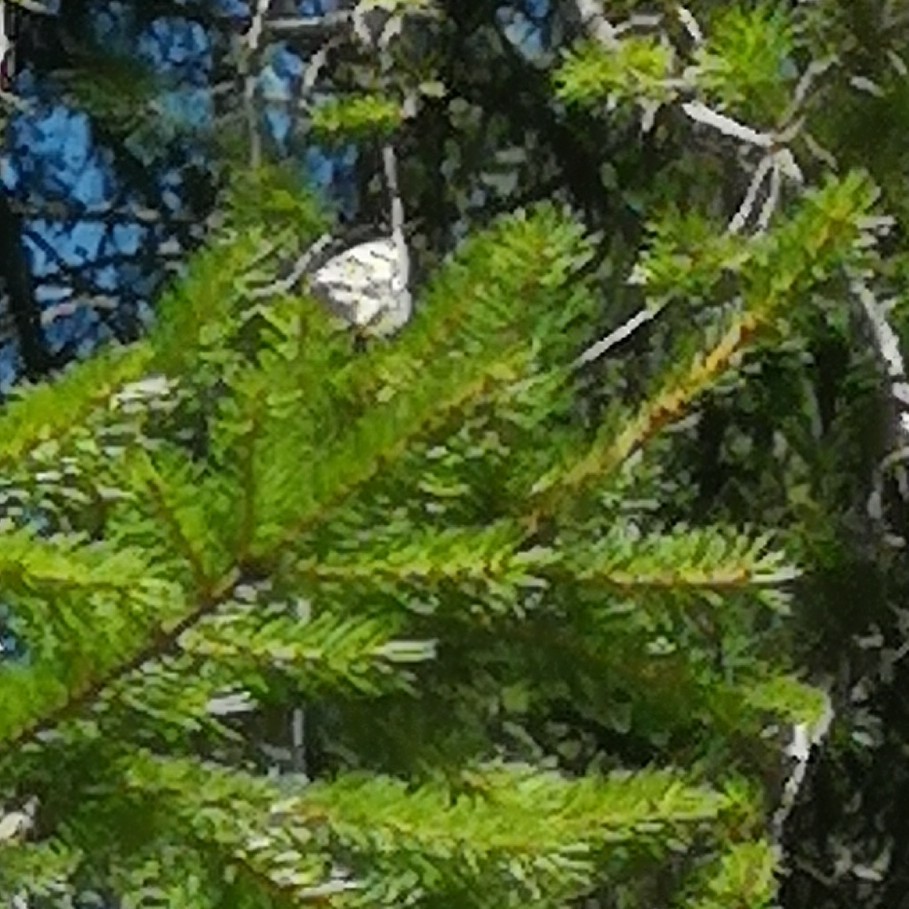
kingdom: Animalia
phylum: Arthropoda
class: Insecta
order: Lepidoptera
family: Nymphalidae
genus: Melanargia
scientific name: Melanargia galathea
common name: Marbled white
